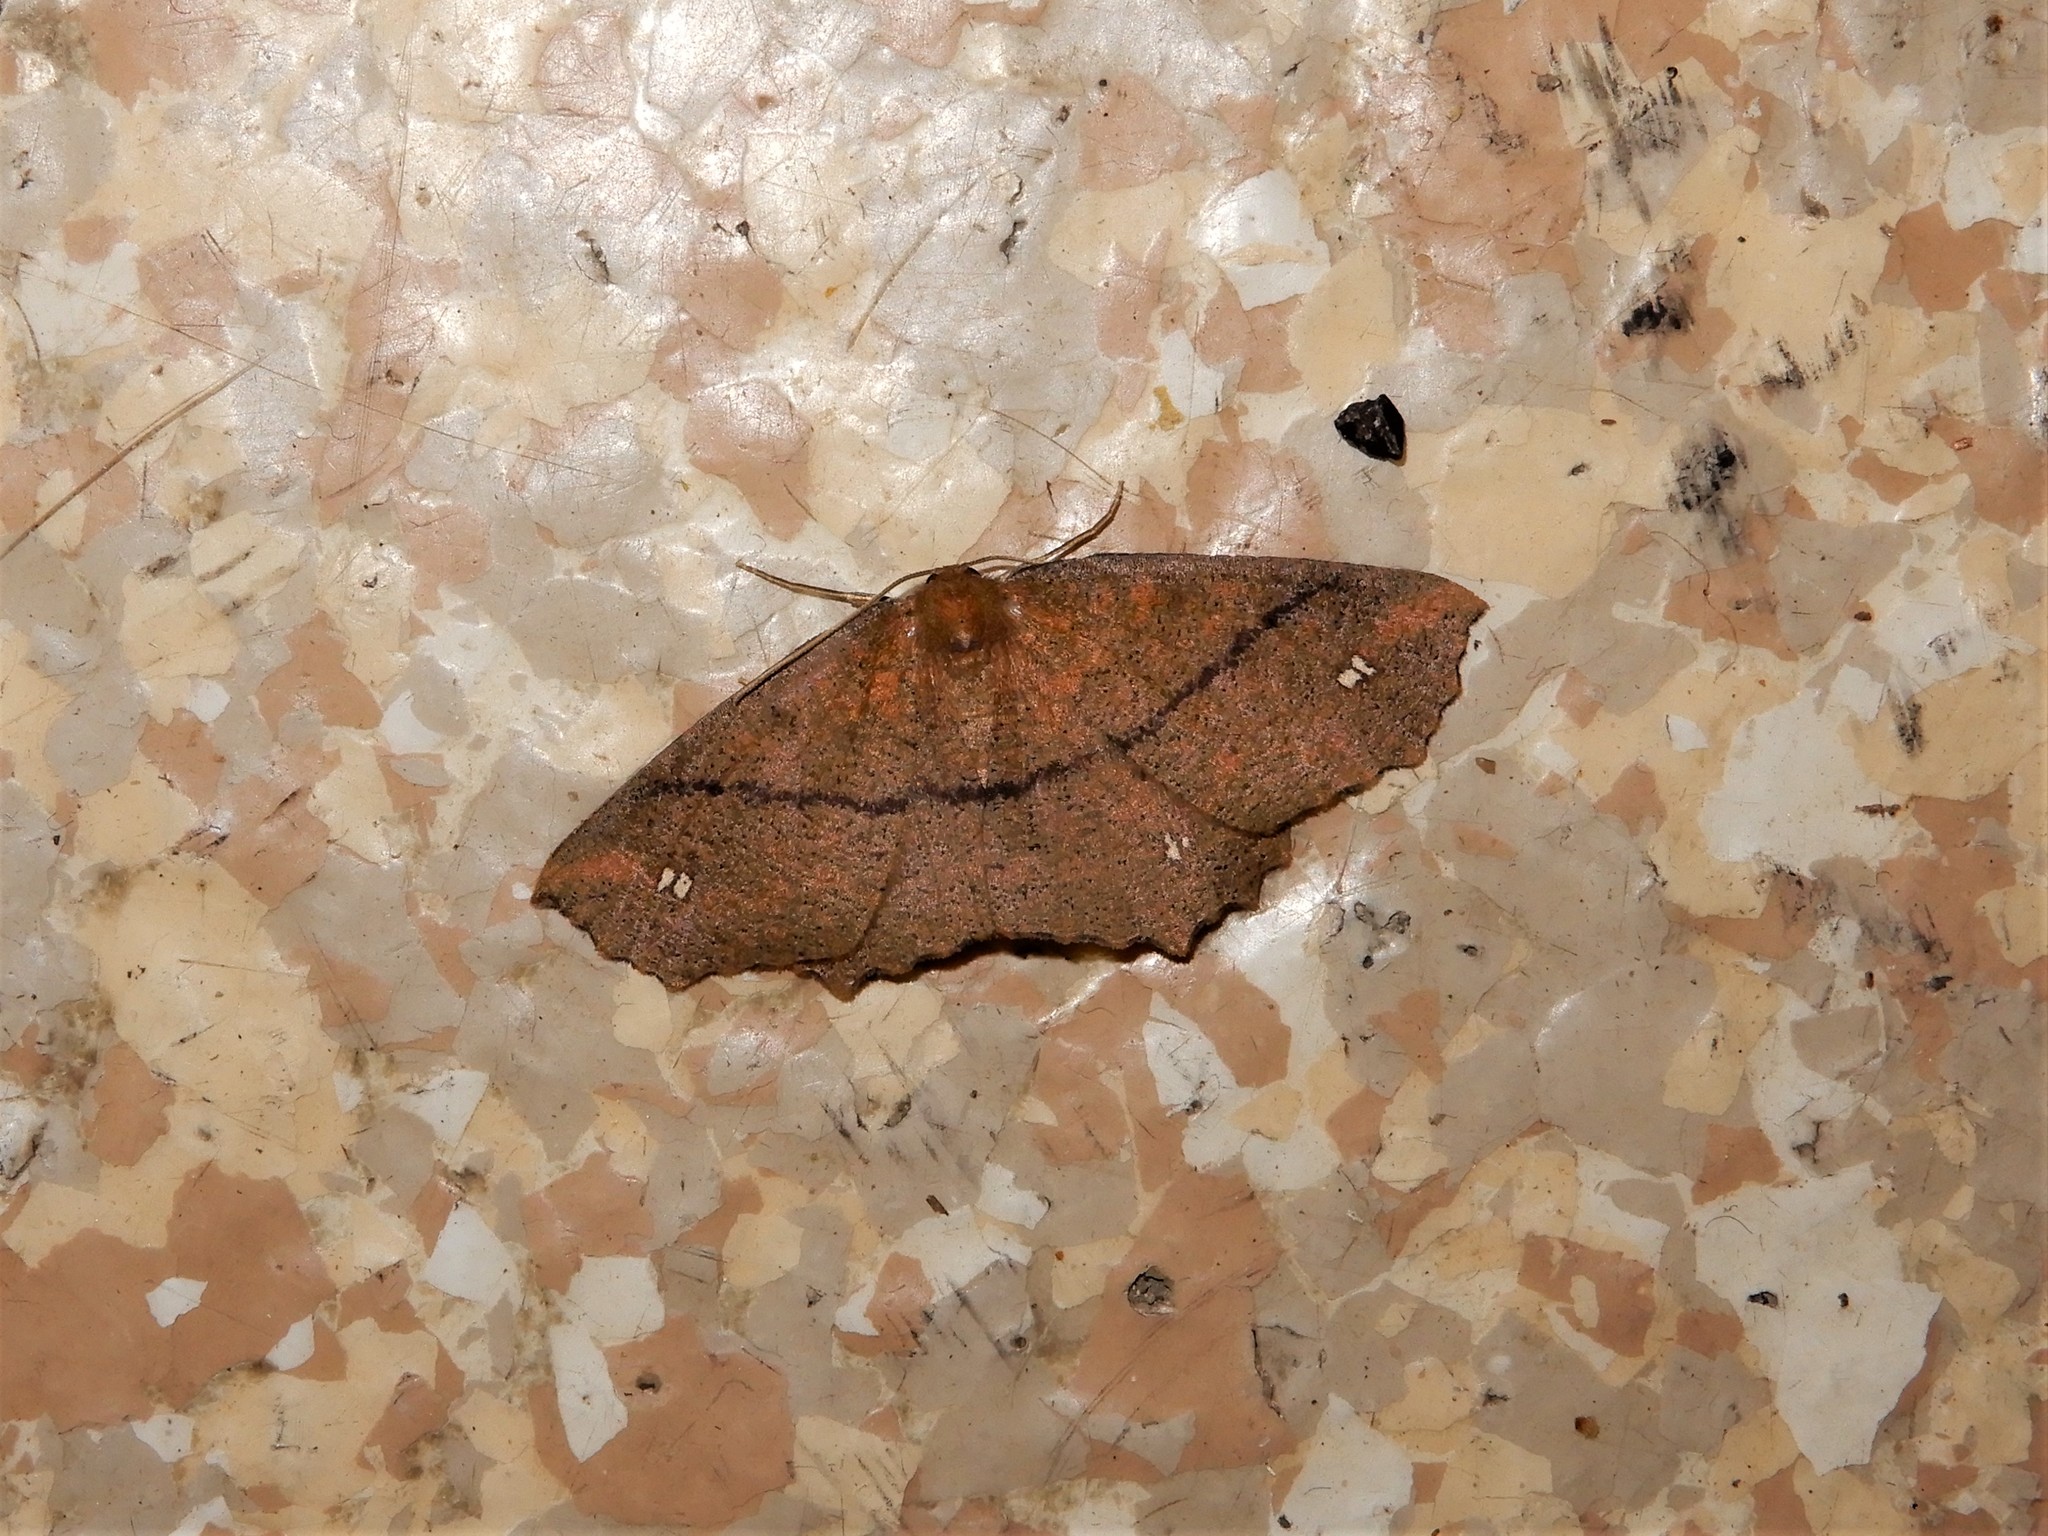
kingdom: Animalia
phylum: Arthropoda
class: Insecta
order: Lepidoptera
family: Geometridae
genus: Xyridacma
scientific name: Xyridacma ustaria
